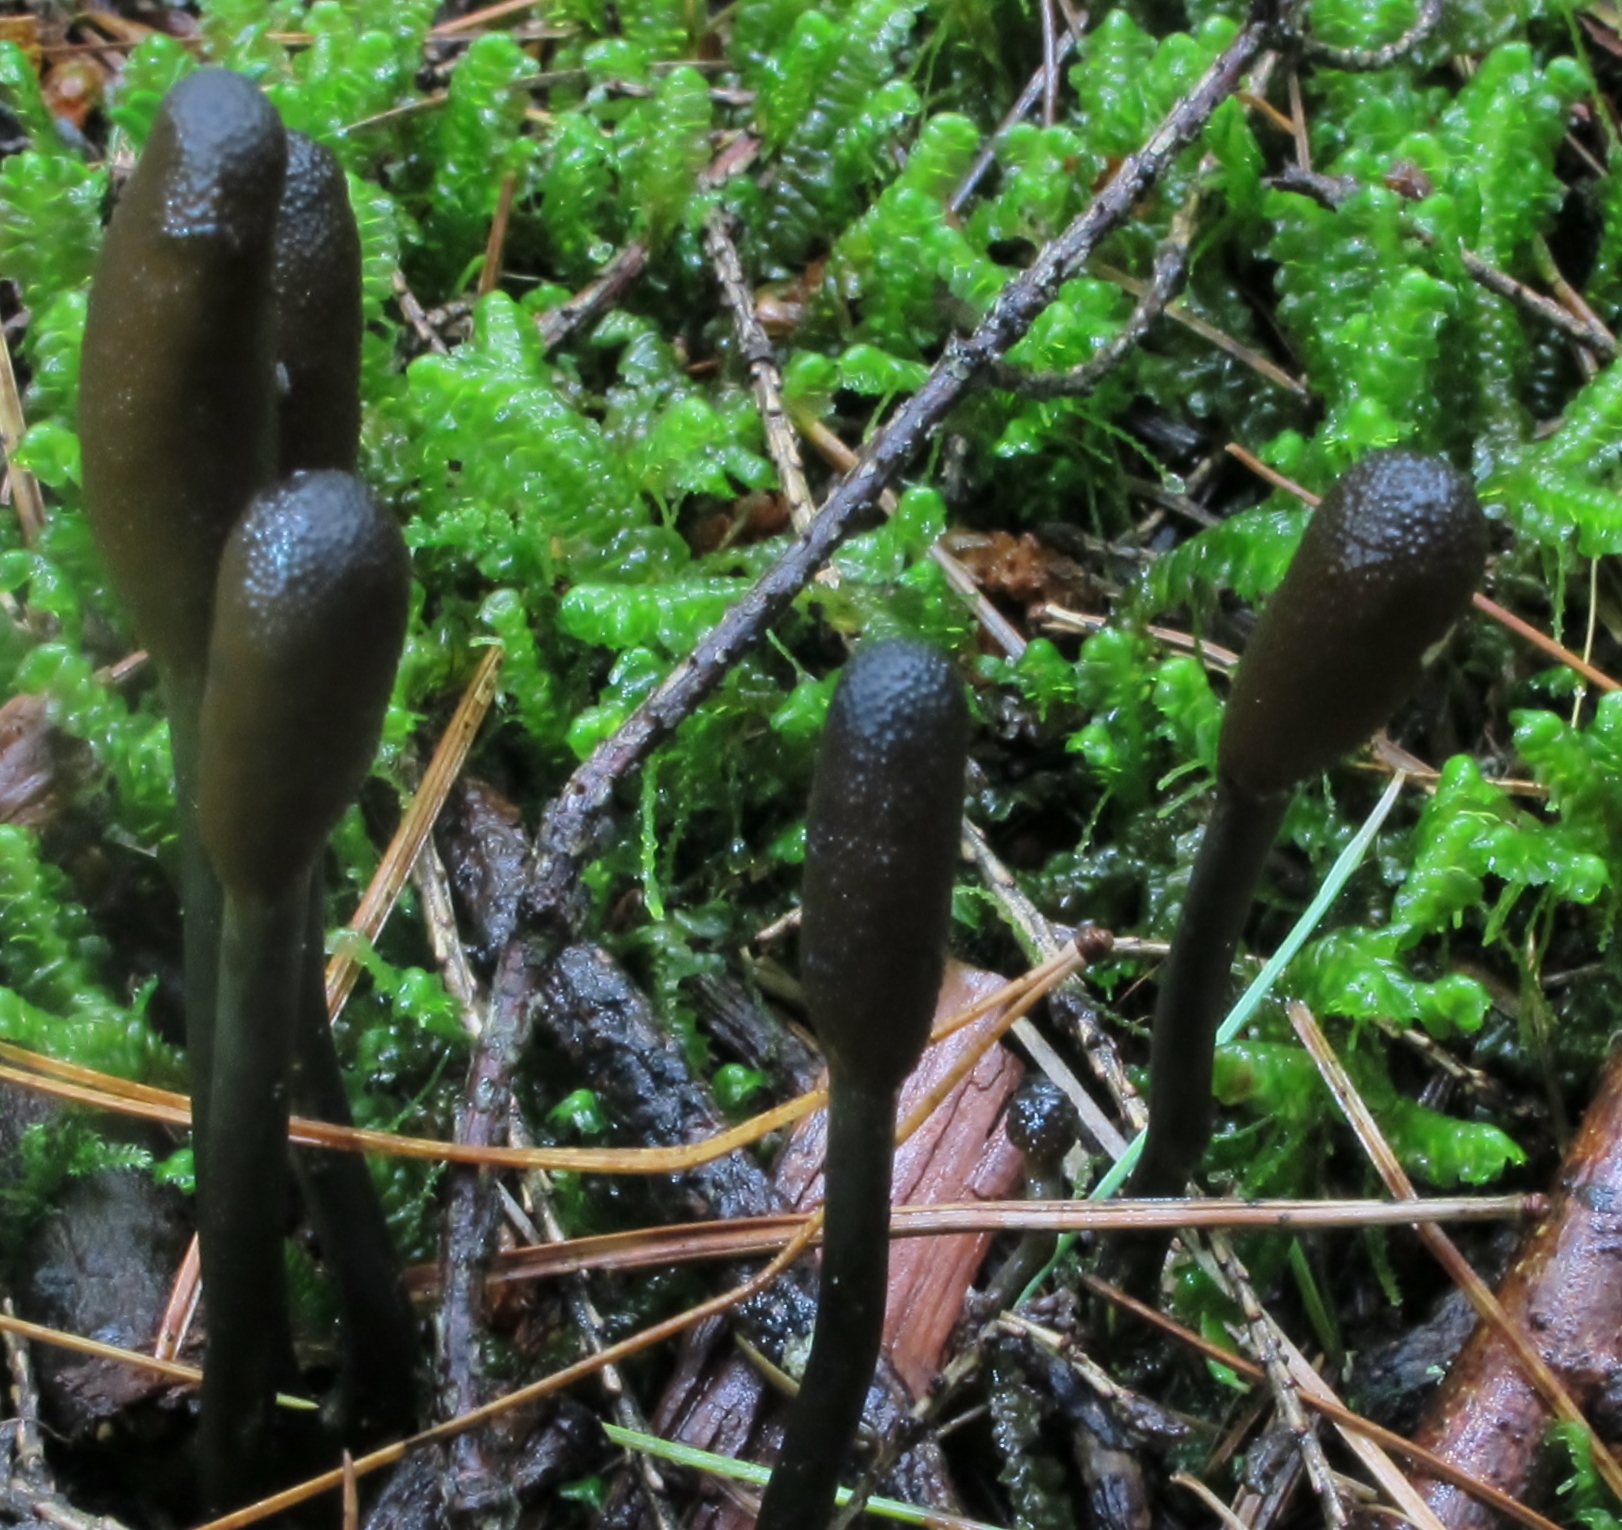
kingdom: Fungi
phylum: Ascomycota
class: Sordariomycetes
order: Hypocreales
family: Ophiocordycipitaceae
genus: Tolypocladium
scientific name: Tolypocladium ophioglossoides
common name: Snaketongue truffleclub
